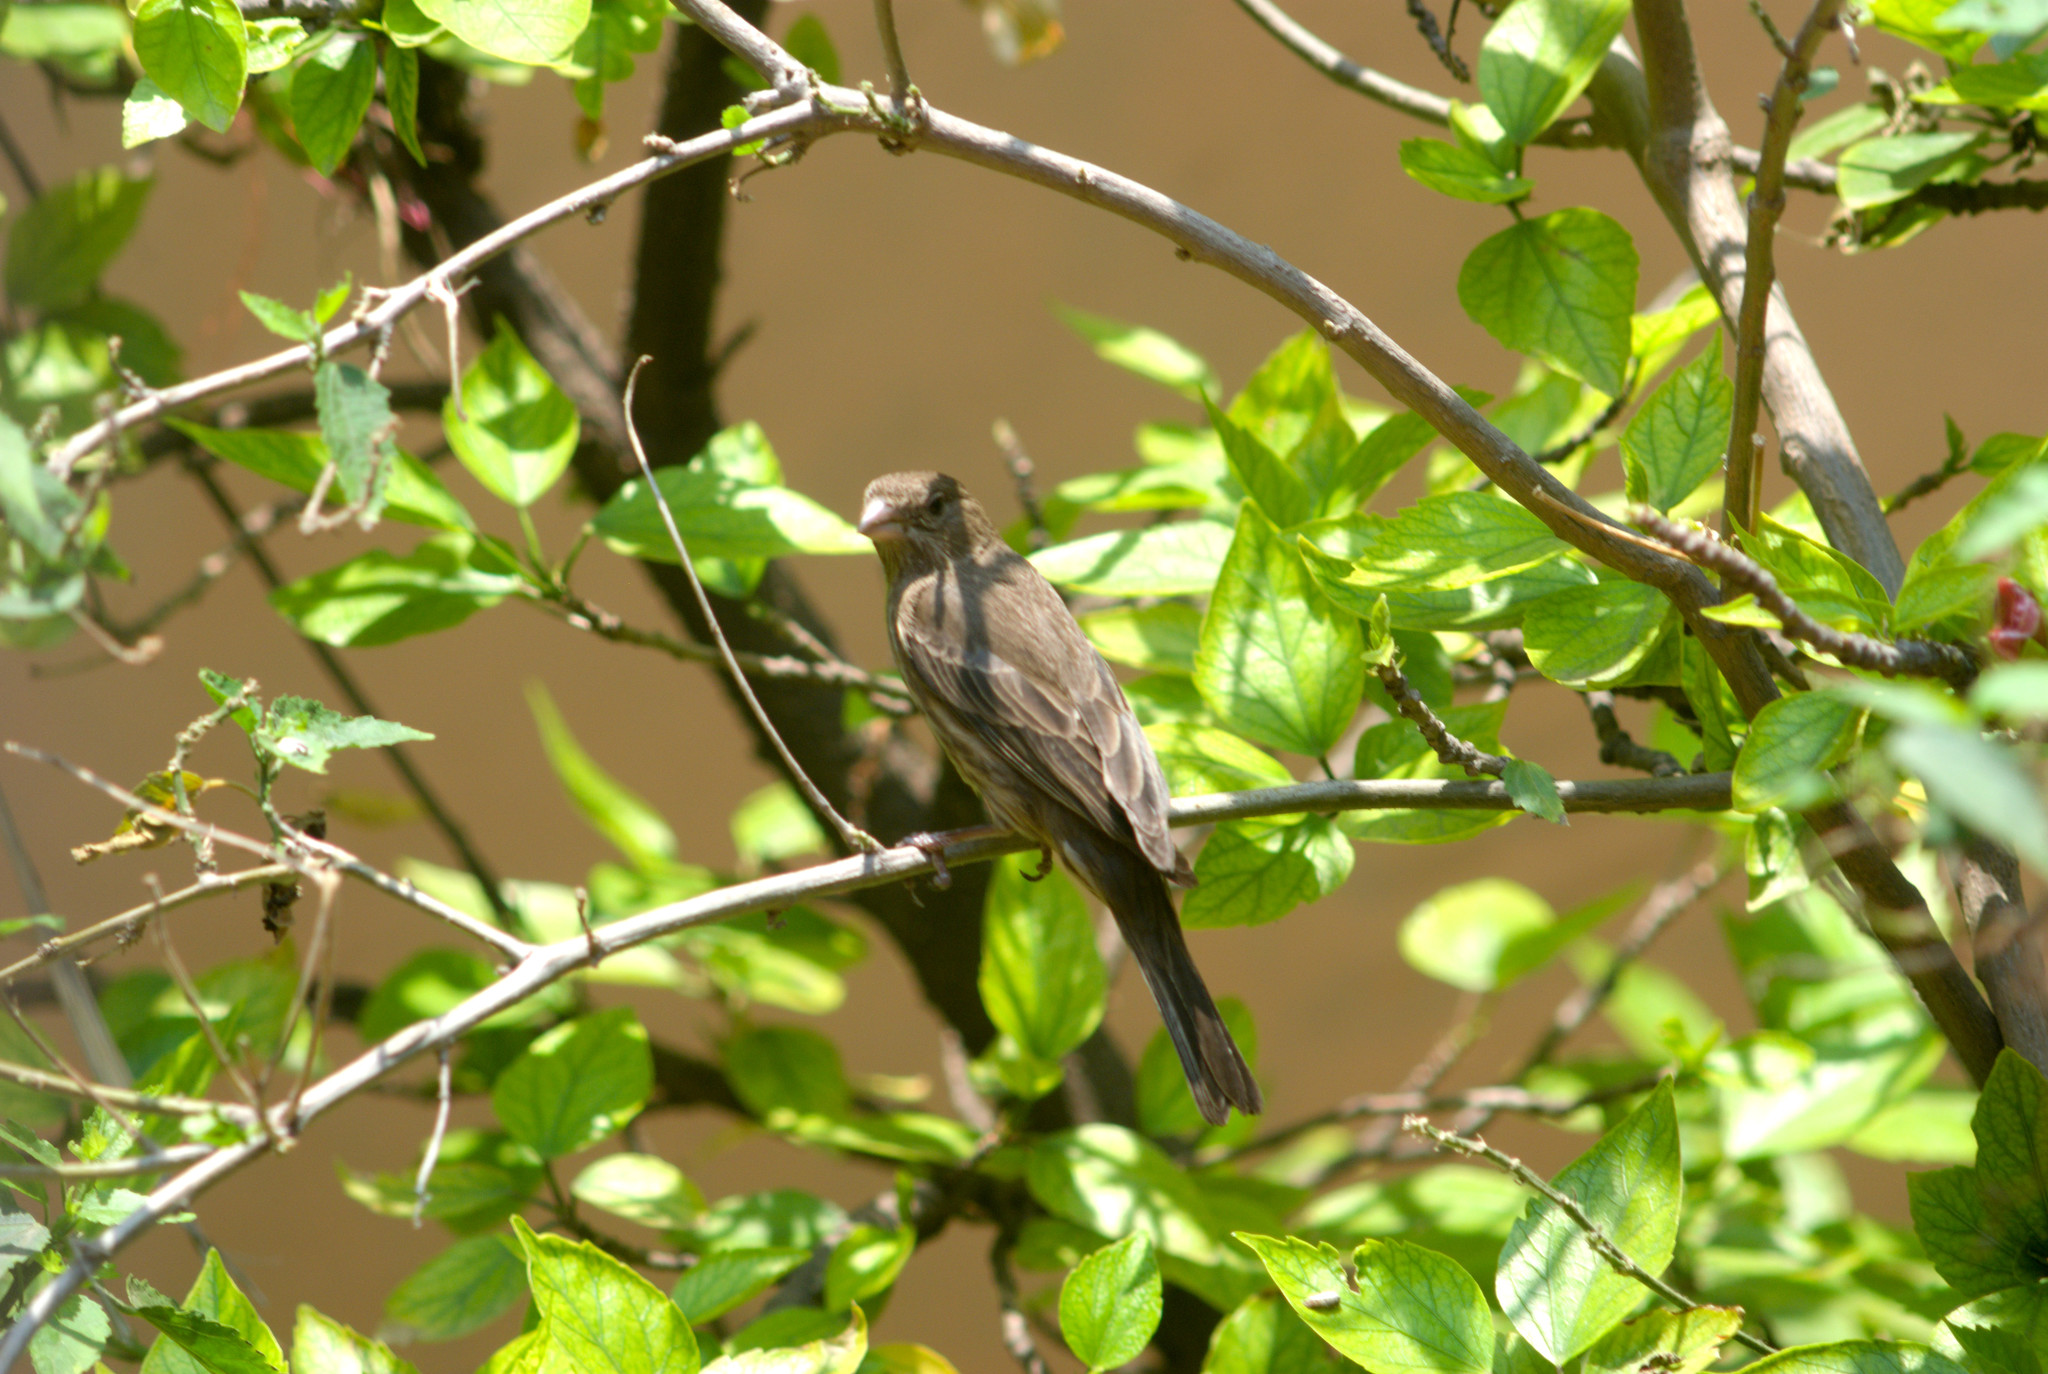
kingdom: Animalia
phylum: Chordata
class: Aves
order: Passeriformes
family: Fringillidae
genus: Haemorhous
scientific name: Haemorhous mexicanus
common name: House finch
